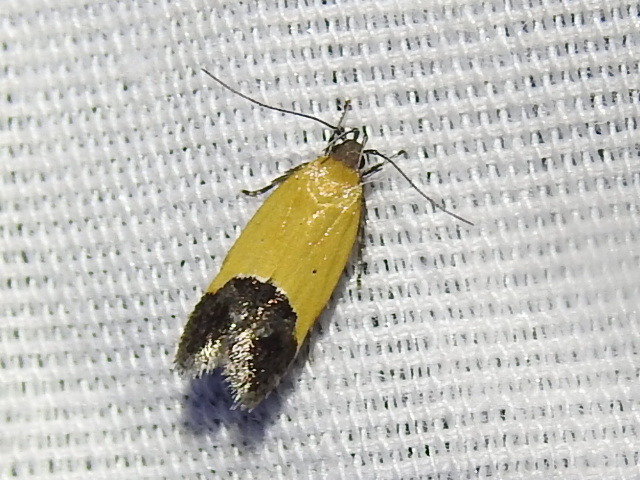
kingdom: Animalia
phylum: Arthropoda
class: Insecta
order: Lepidoptera
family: Momphidae
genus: Triclonella
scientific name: Triclonella pergandeella
